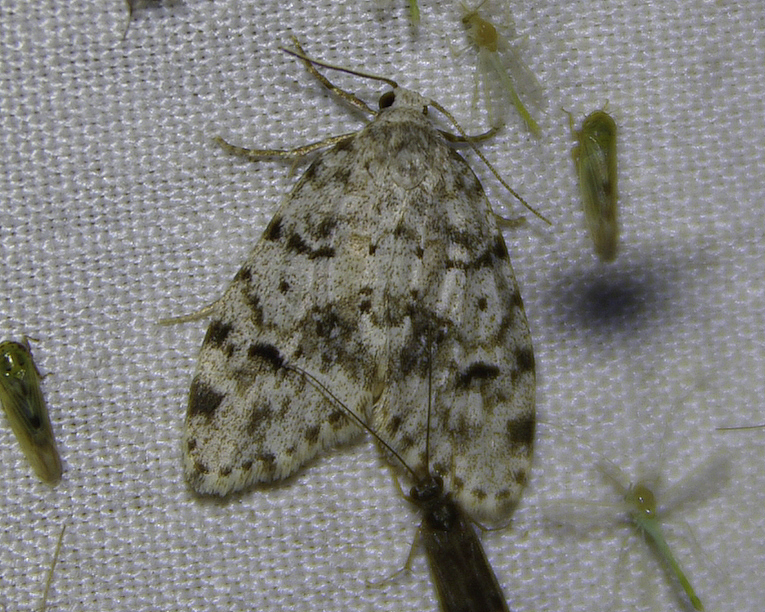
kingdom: Animalia
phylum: Arthropoda
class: Insecta
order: Lepidoptera
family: Erebidae
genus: Clemensia
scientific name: Clemensia umbrata
